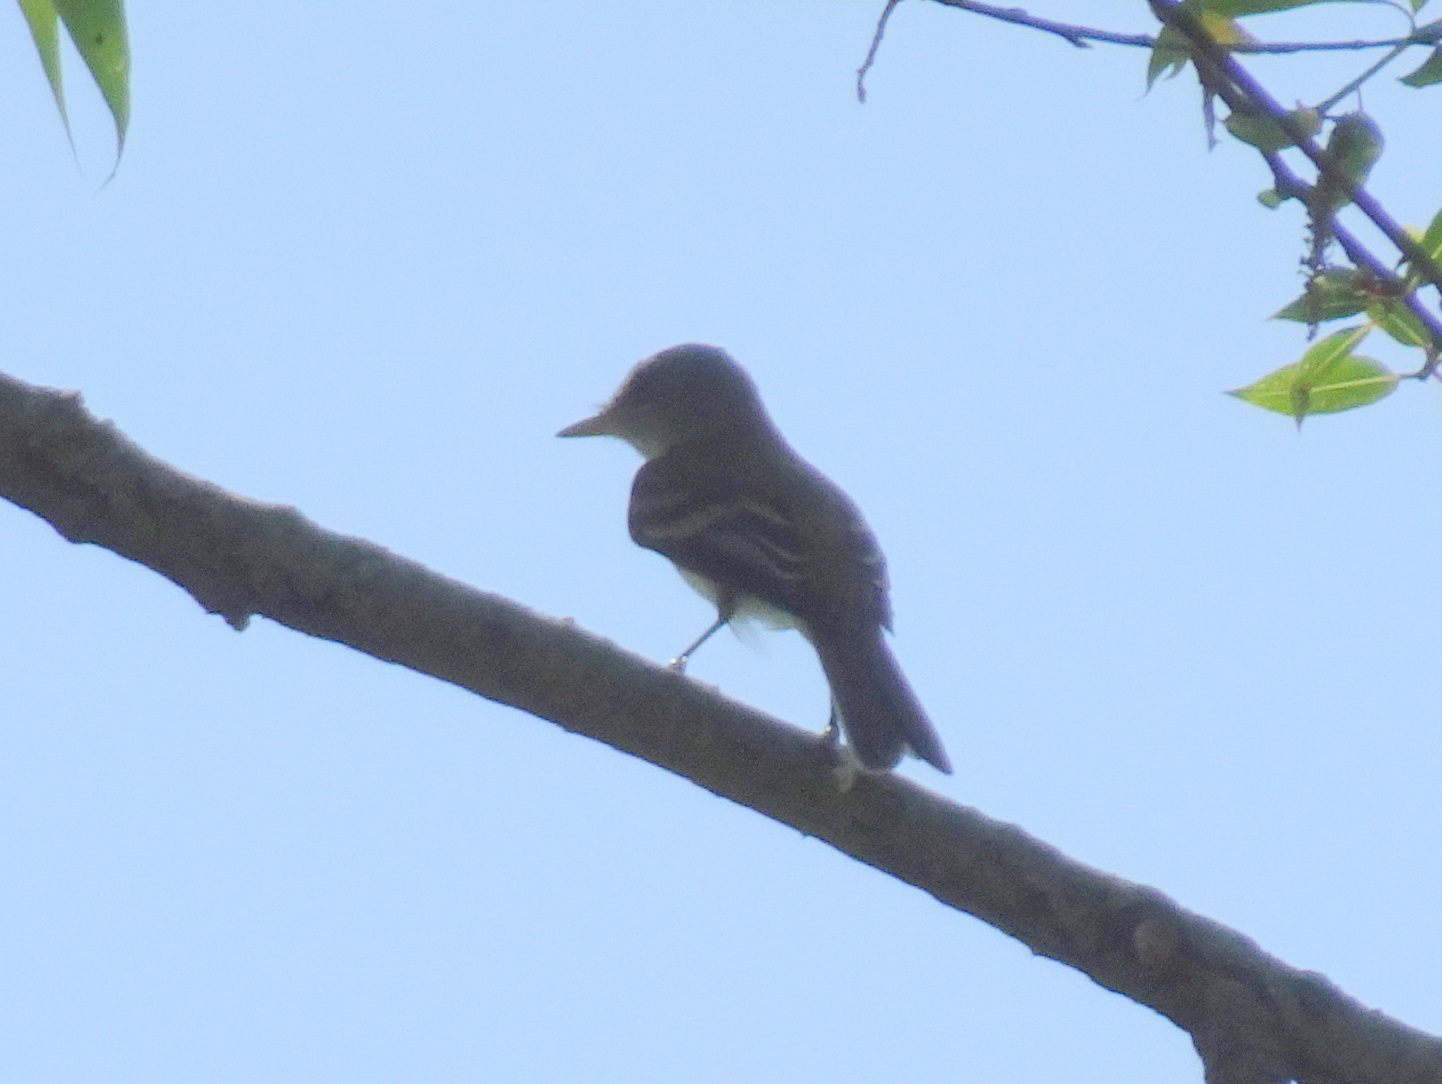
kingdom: Animalia
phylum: Chordata
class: Aves
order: Passeriformes
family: Tyrannidae
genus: Empidonax
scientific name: Empidonax traillii
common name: Willow flycatcher
